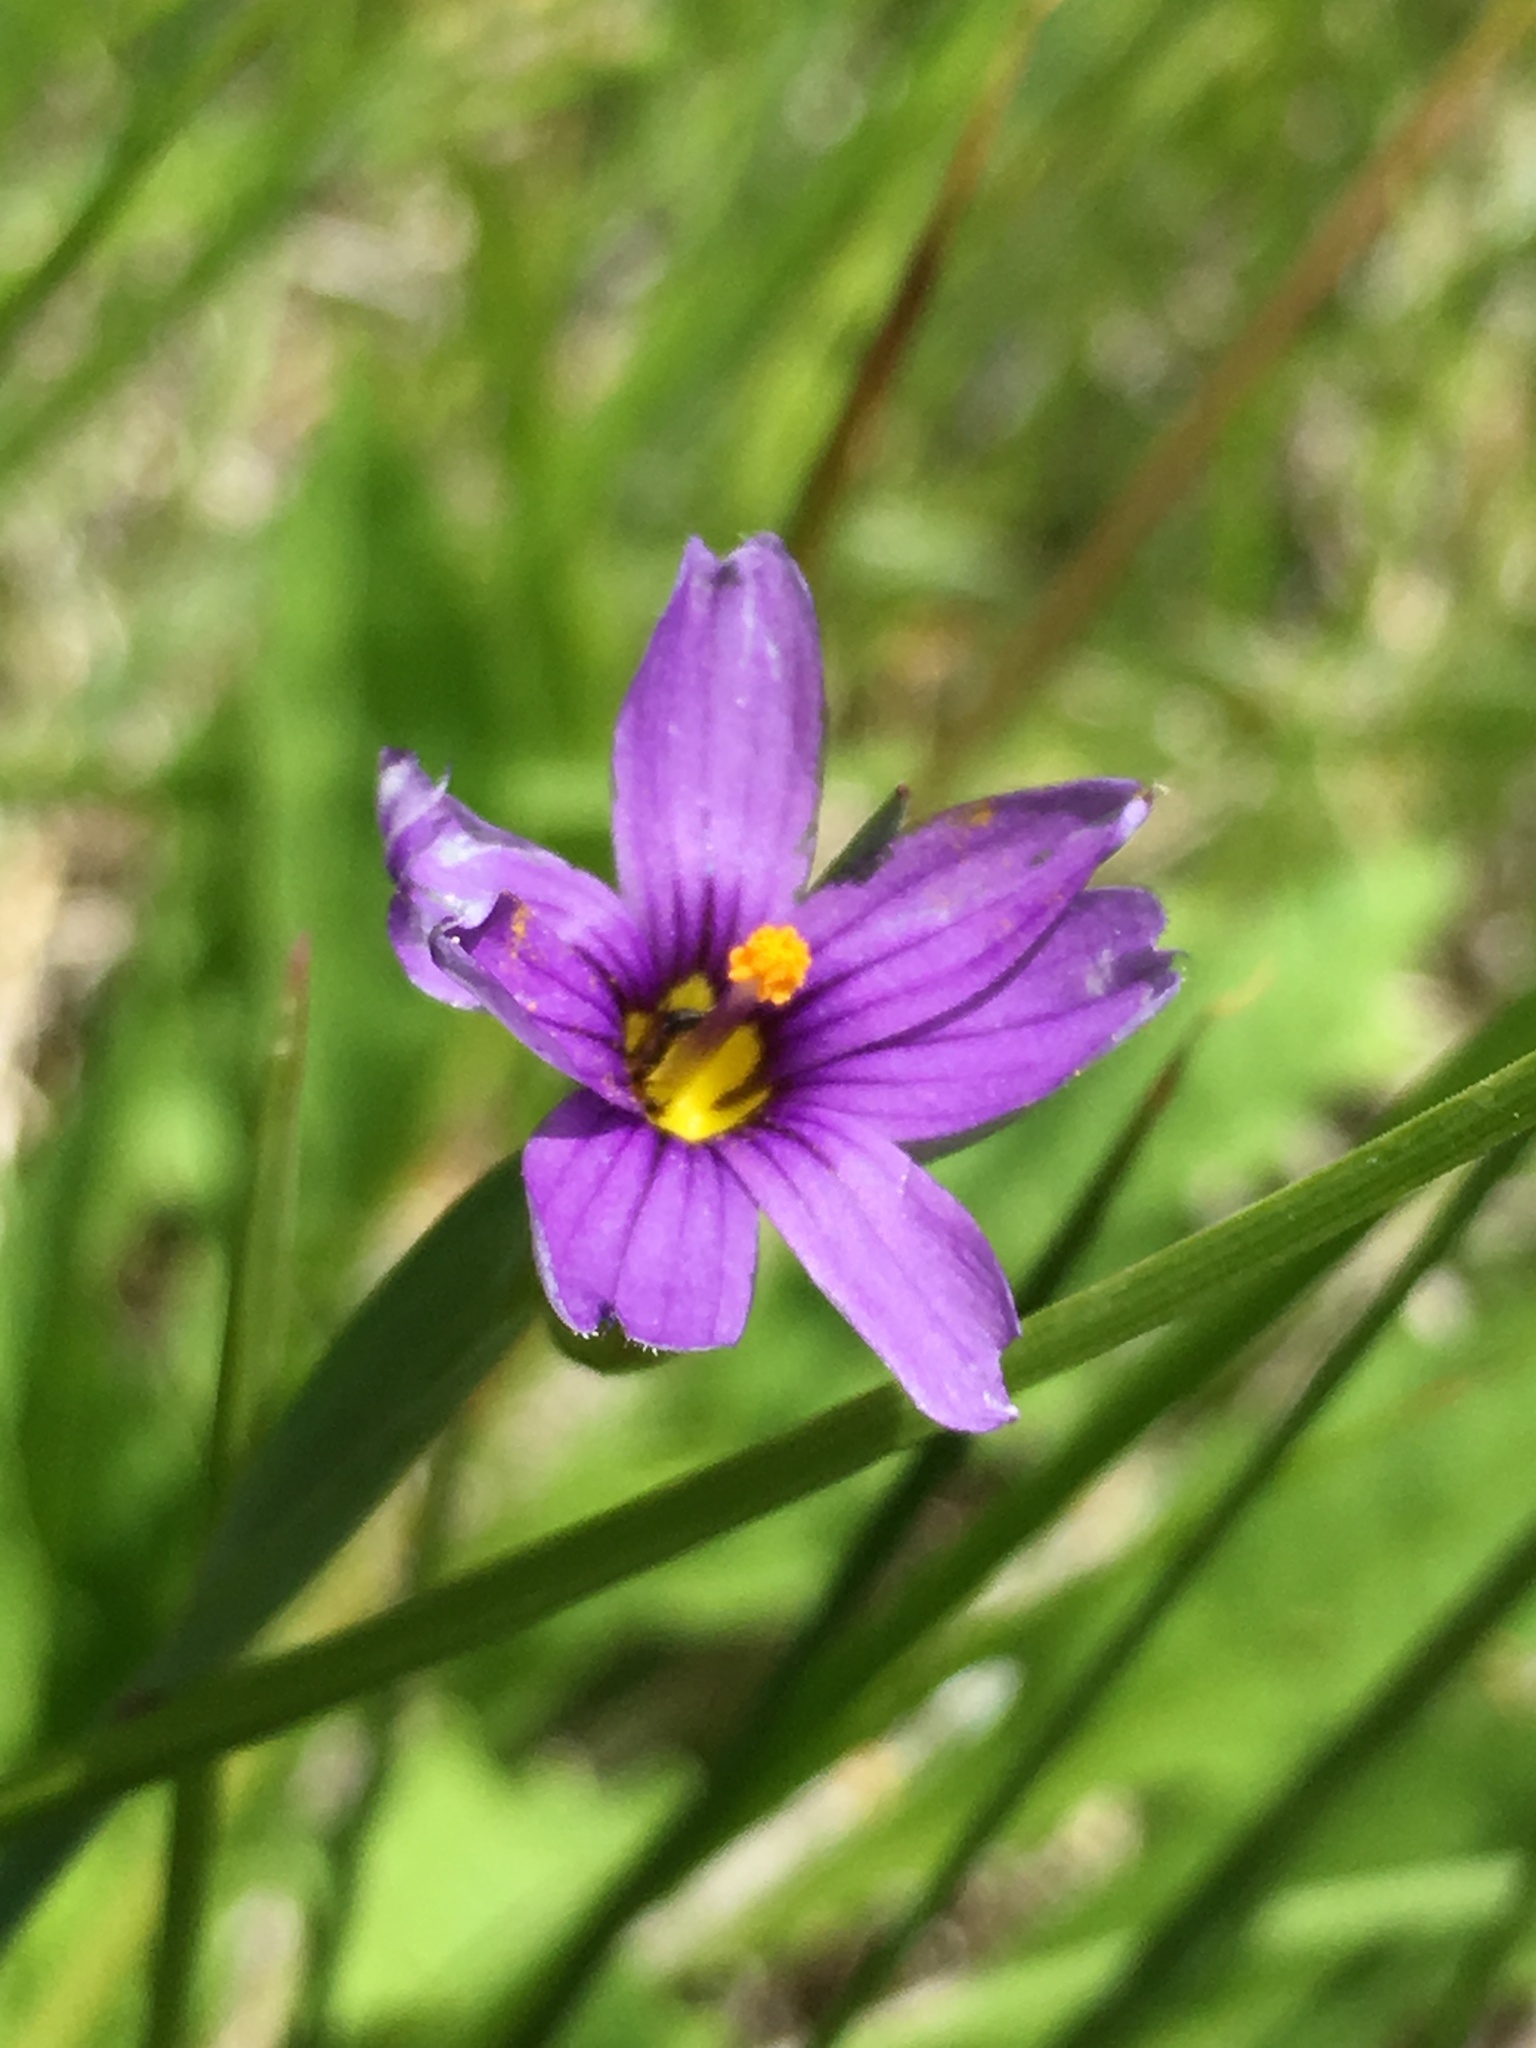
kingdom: Plantae
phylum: Tracheophyta
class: Liliopsida
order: Asparagales
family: Iridaceae
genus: Sisyrinchium
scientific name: Sisyrinchium bellum
